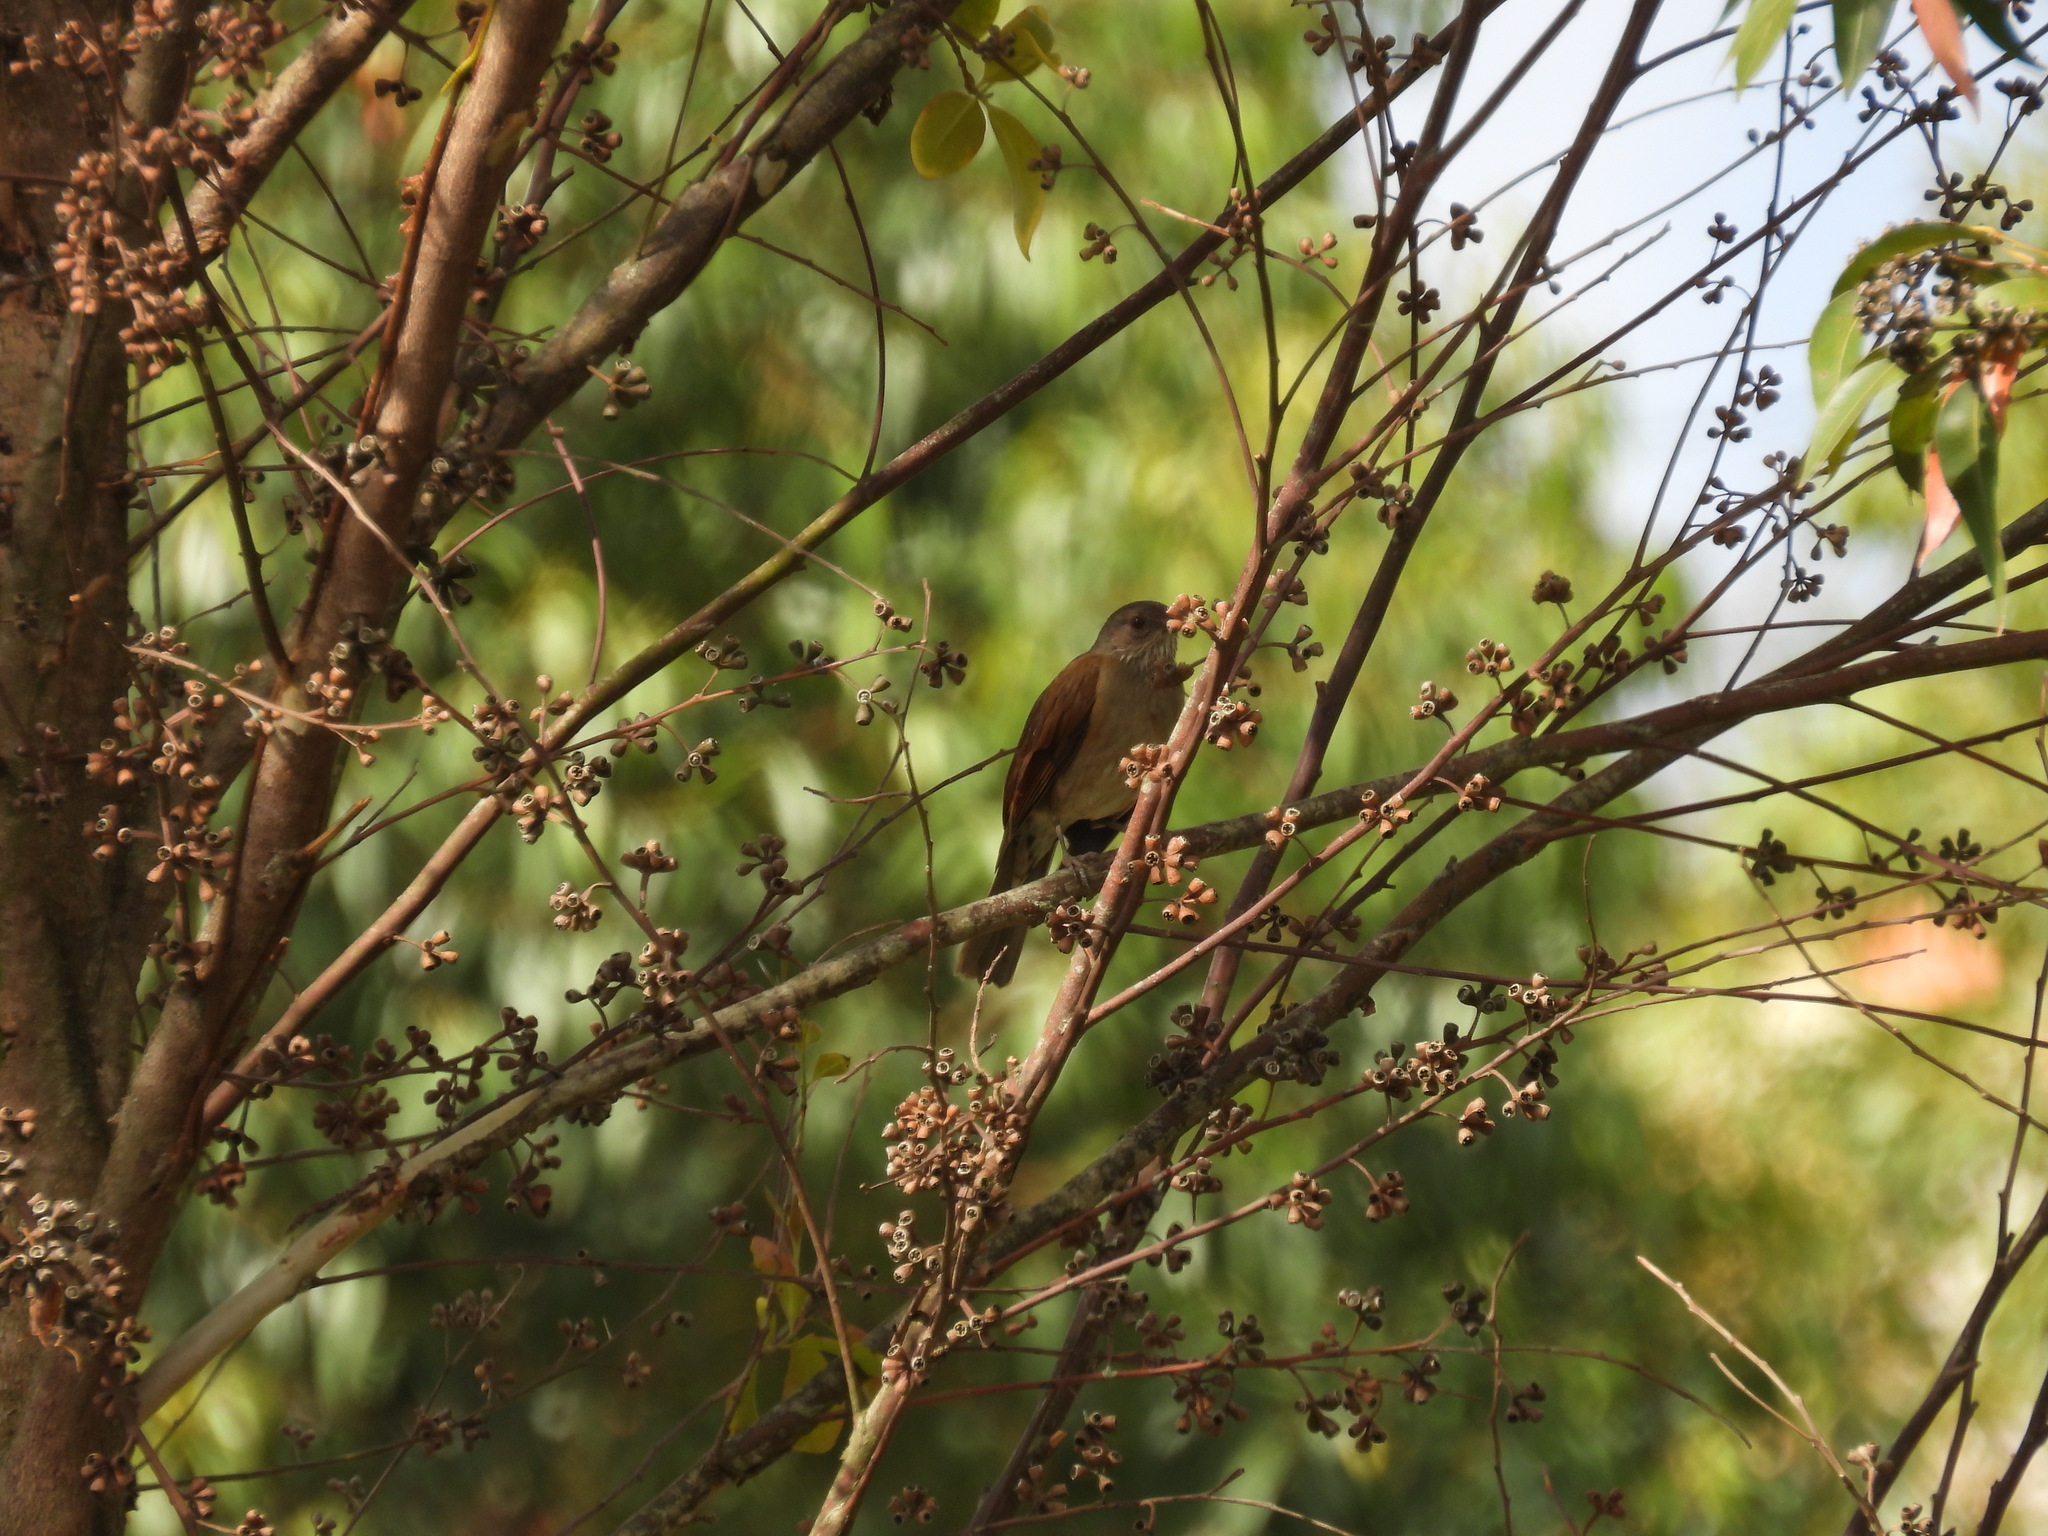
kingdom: Animalia
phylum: Chordata
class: Aves
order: Passeriformes
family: Turdidae
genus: Turdus
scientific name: Turdus leucomelas
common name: Pale-breasted thrush
